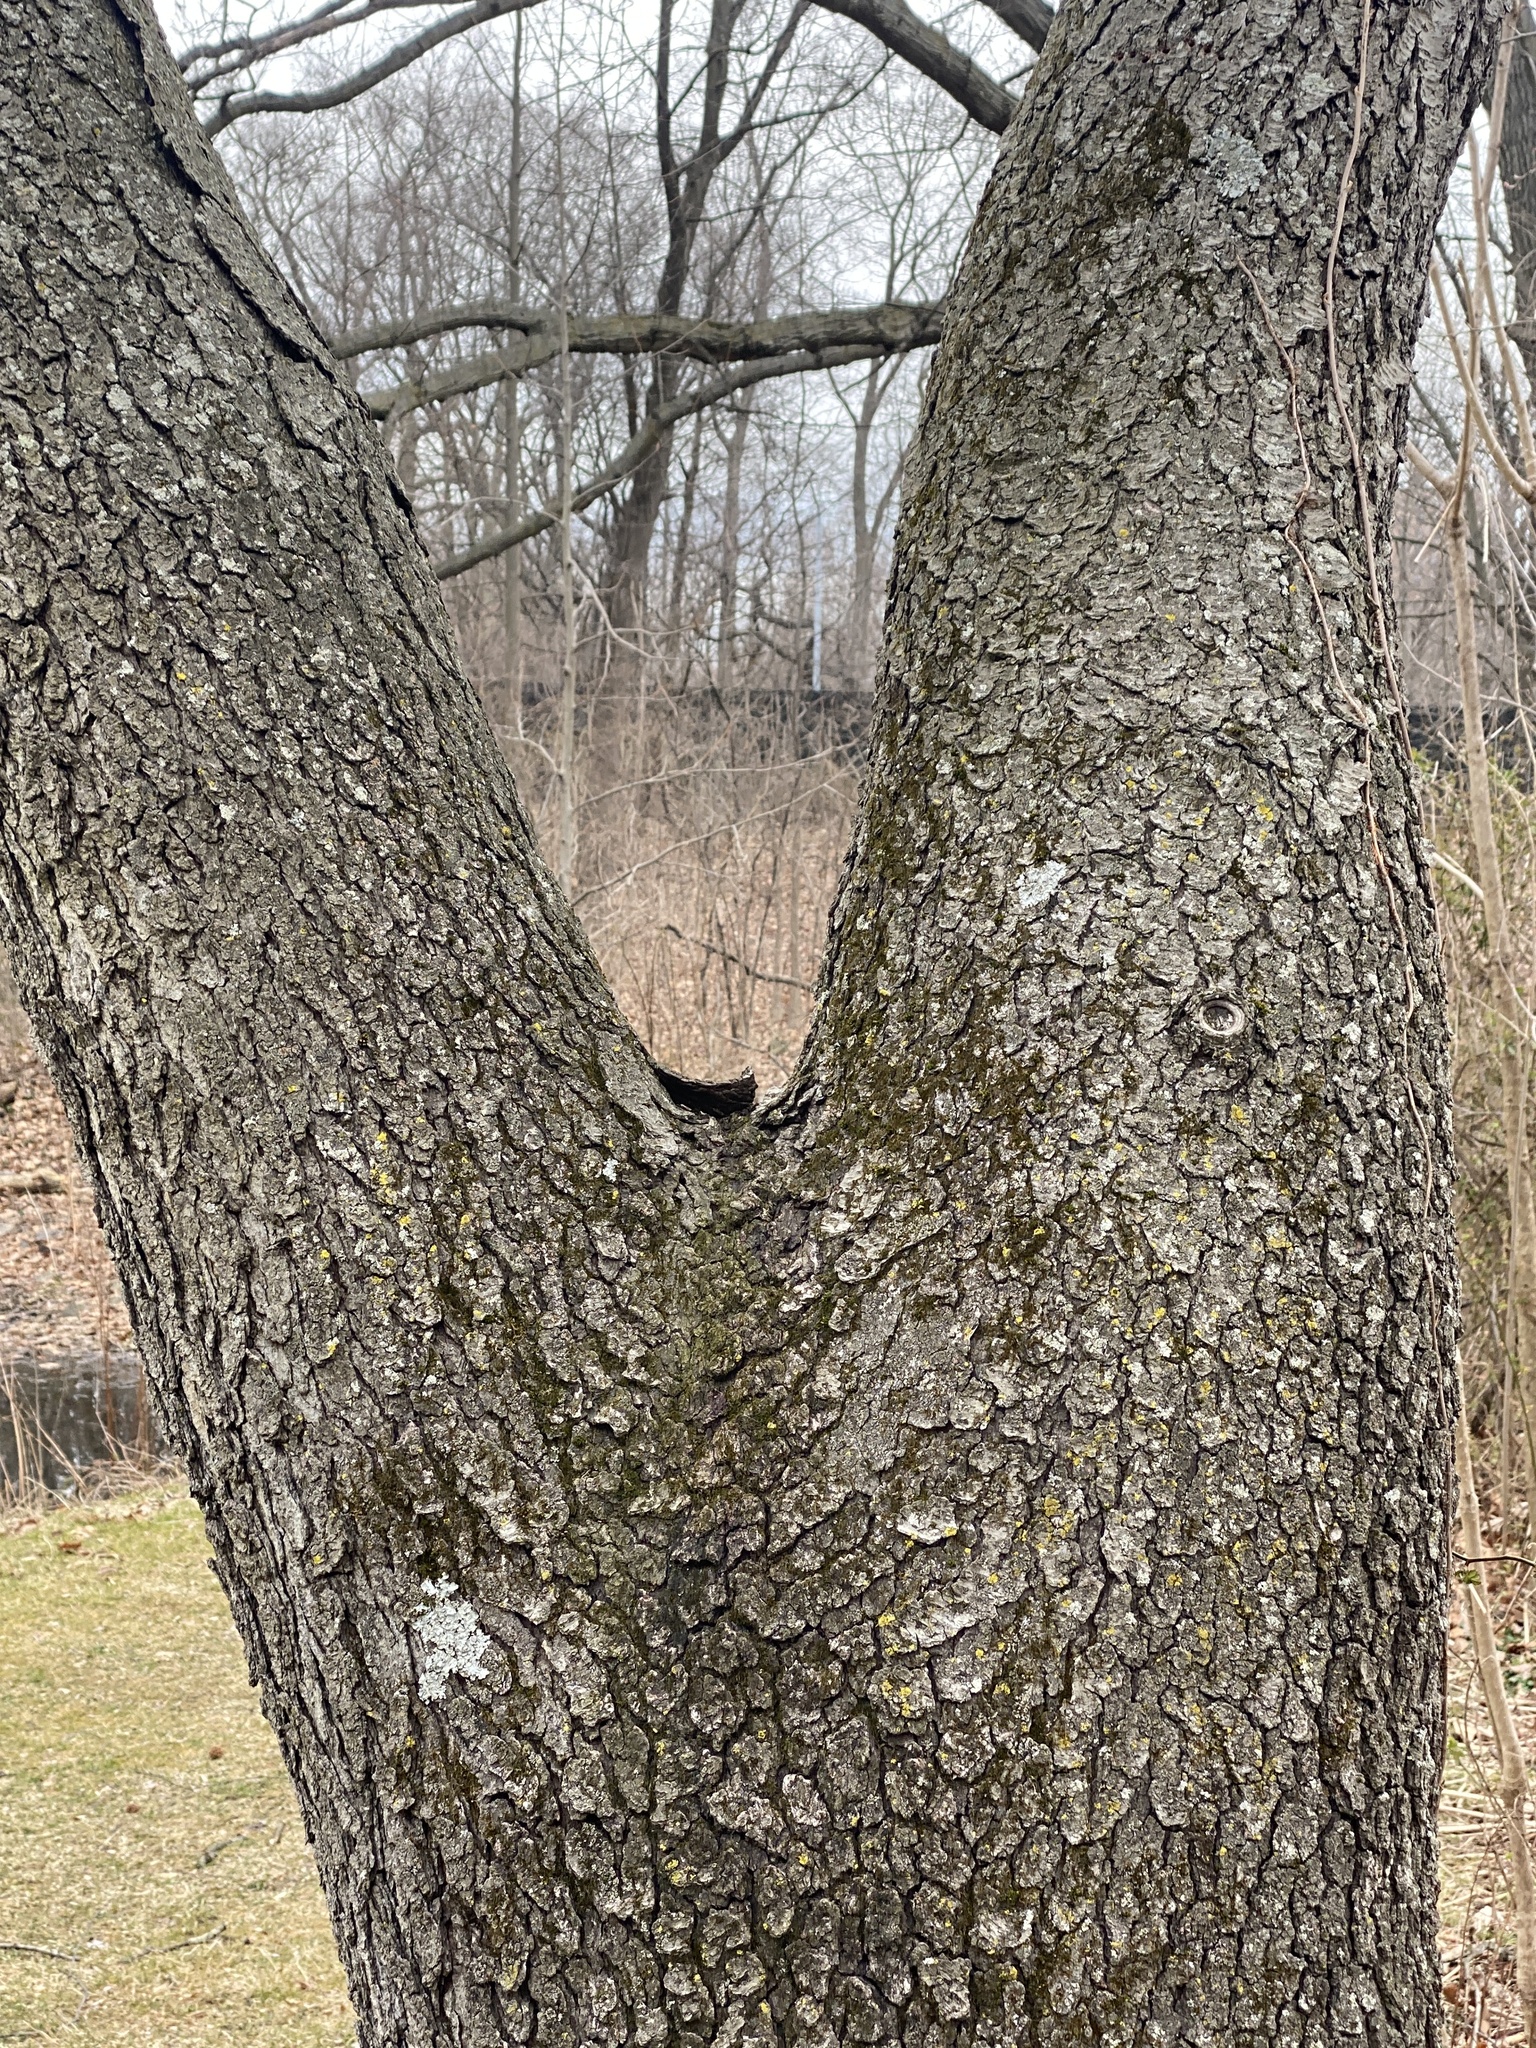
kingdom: Plantae
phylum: Tracheophyta
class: Magnoliopsida
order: Rosales
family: Rosaceae
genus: Prunus
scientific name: Prunus serotina
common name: Black cherry
